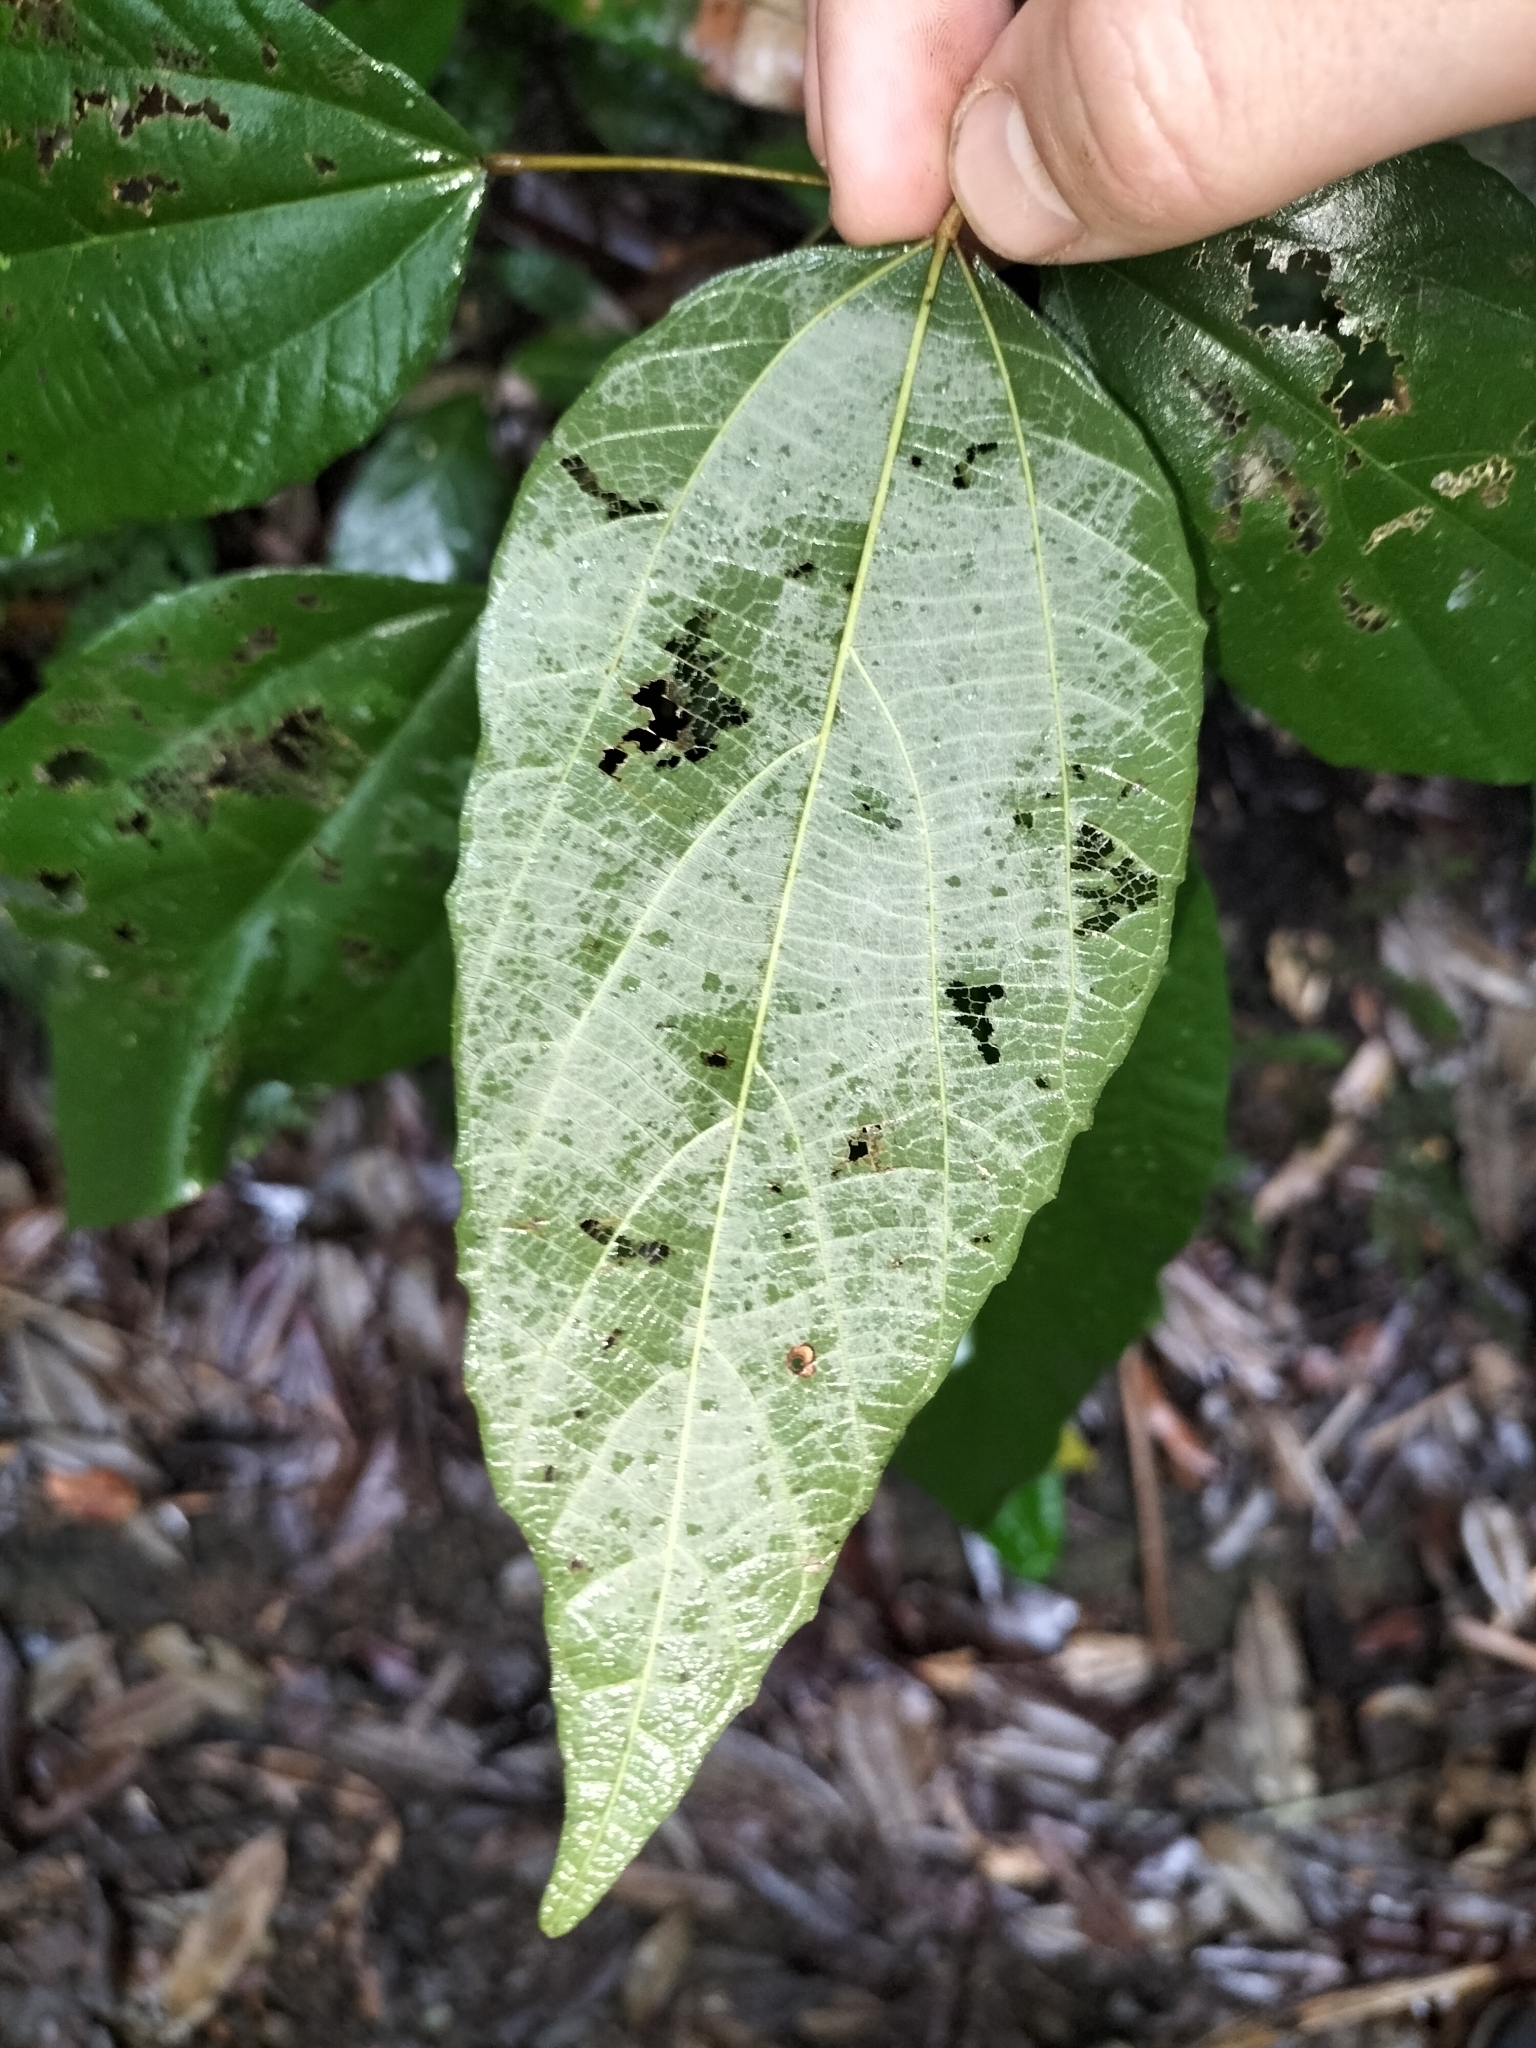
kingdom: Plantae
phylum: Tracheophyta
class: Magnoliopsida
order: Malpighiales
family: Euphorbiaceae
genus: Mallotus
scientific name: Mallotus philippensis
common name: Kamala tree
